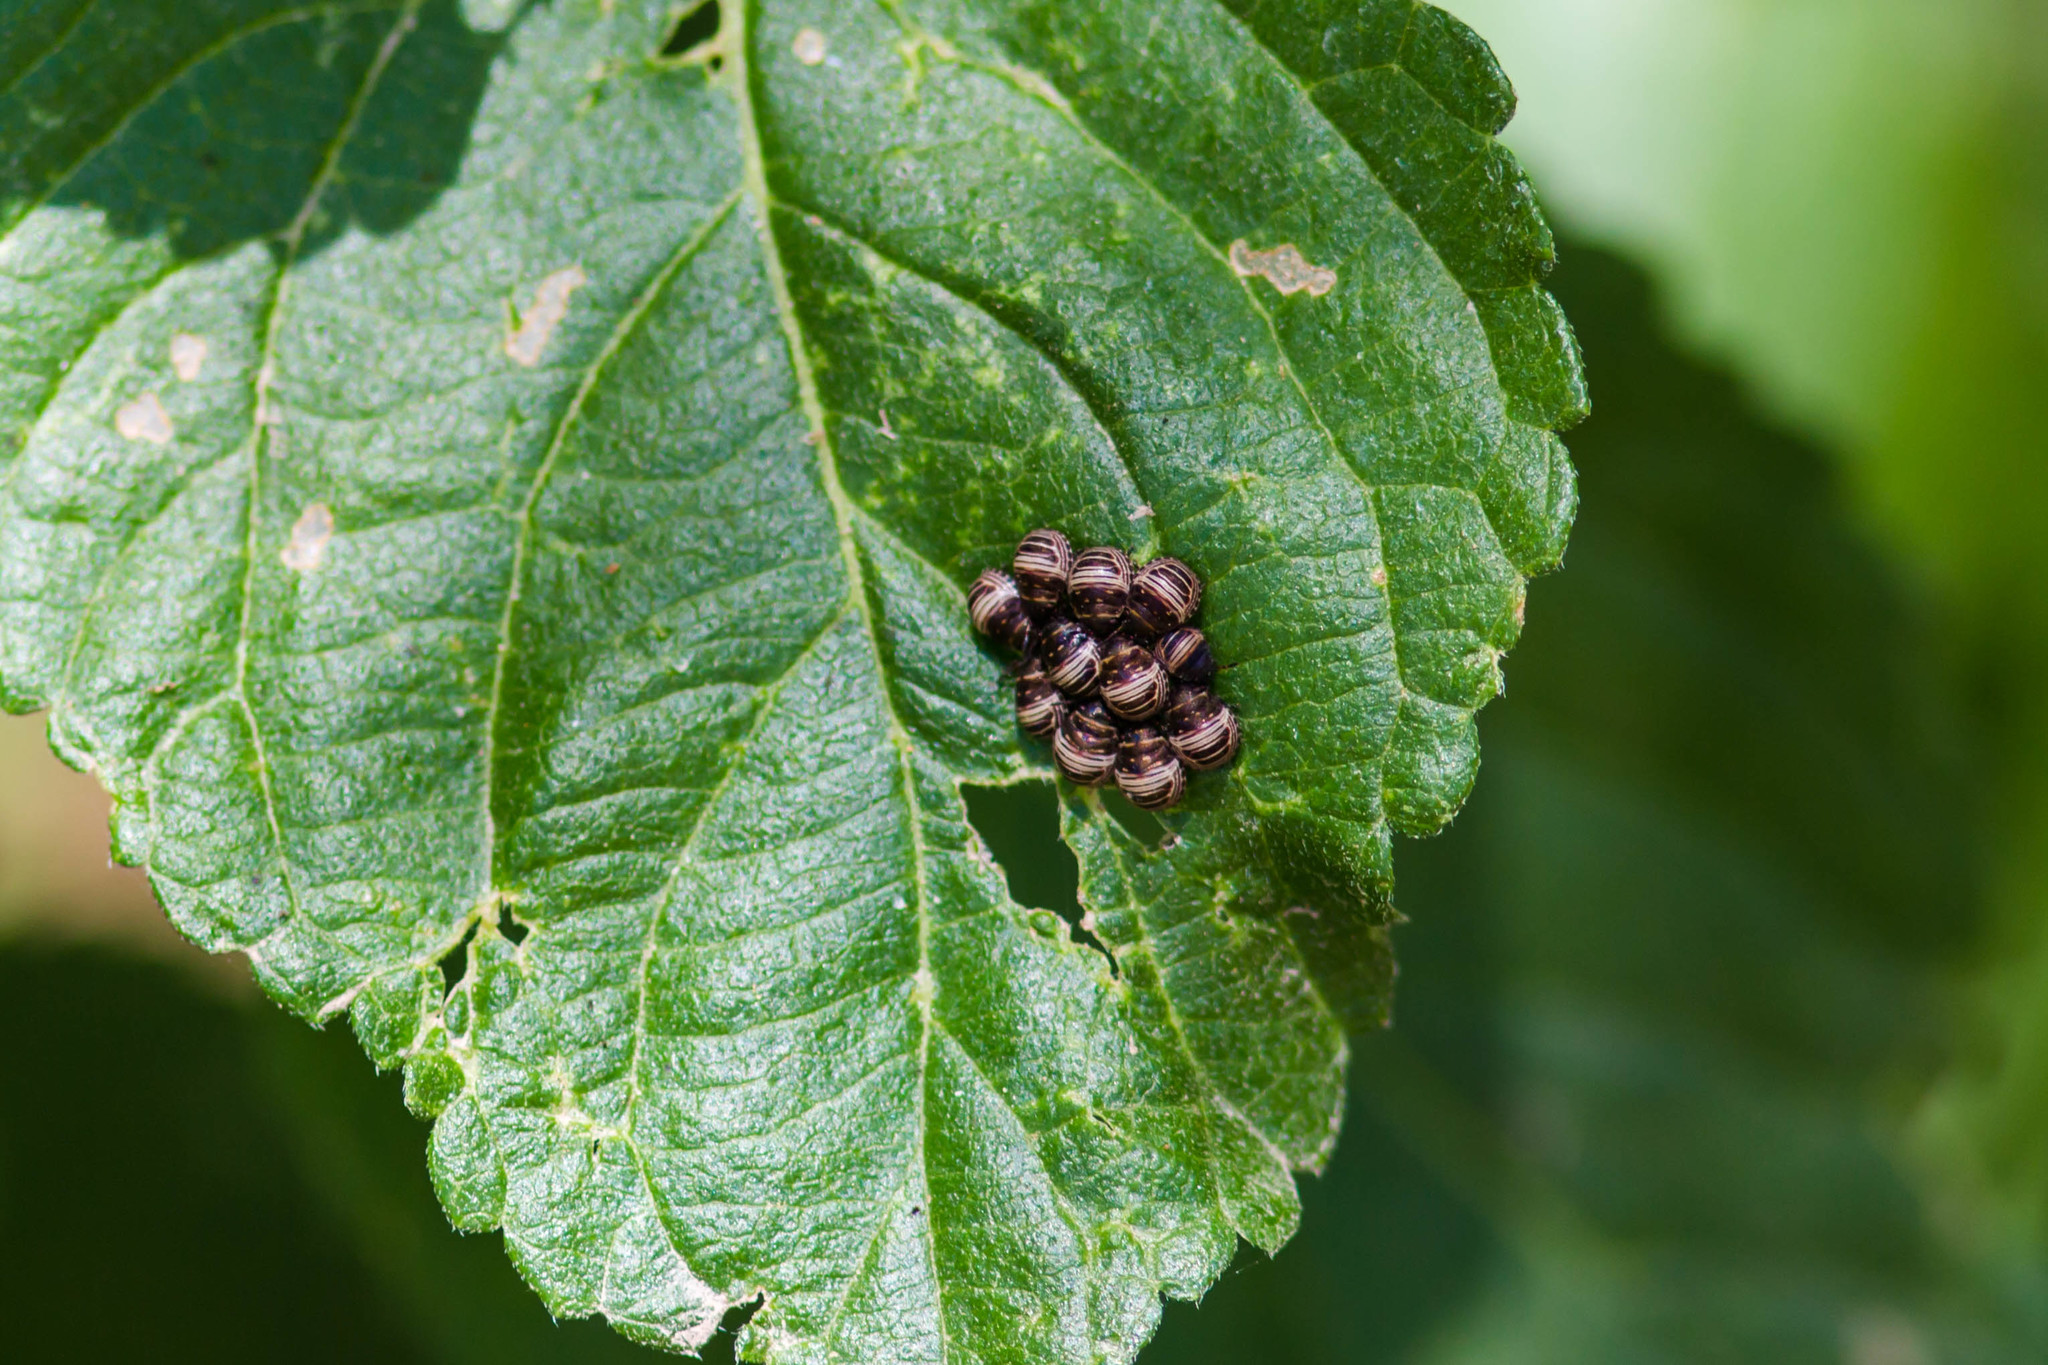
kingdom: Animalia
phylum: Arthropoda
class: Insecta
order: Hemiptera
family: Scutelleridae
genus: Orsilochides
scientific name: Orsilochides
